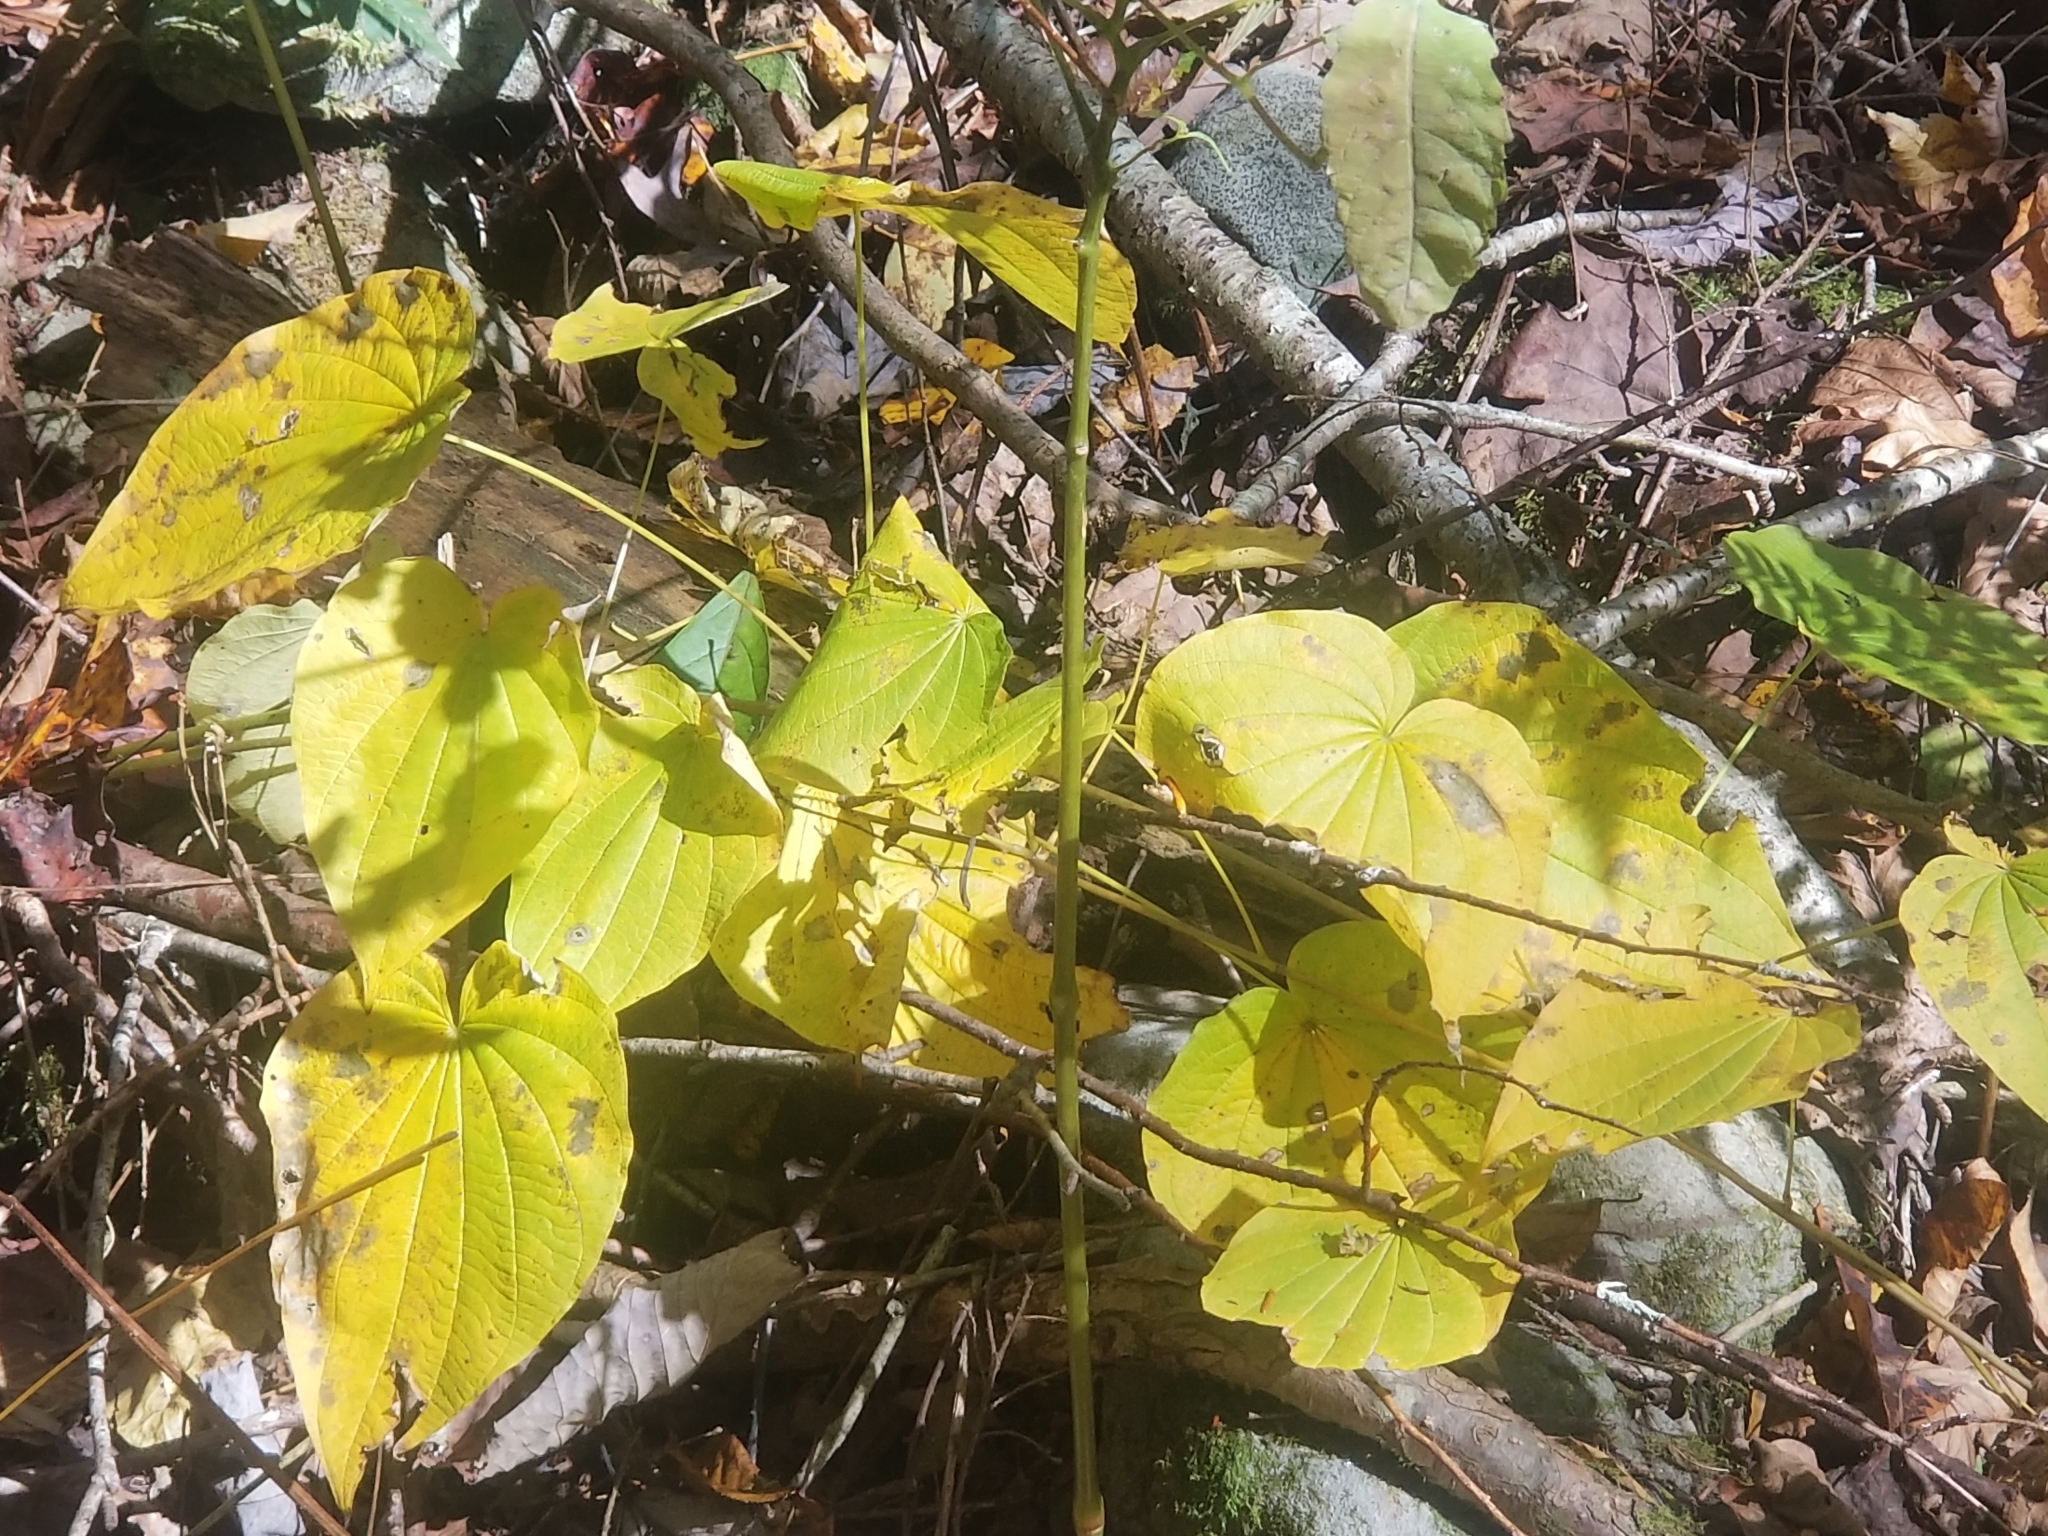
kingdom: Plantae
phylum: Tracheophyta
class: Liliopsida
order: Dioscoreales
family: Dioscoreaceae
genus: Dioscorea
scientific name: Dioscorea villosa
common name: Wild yam
